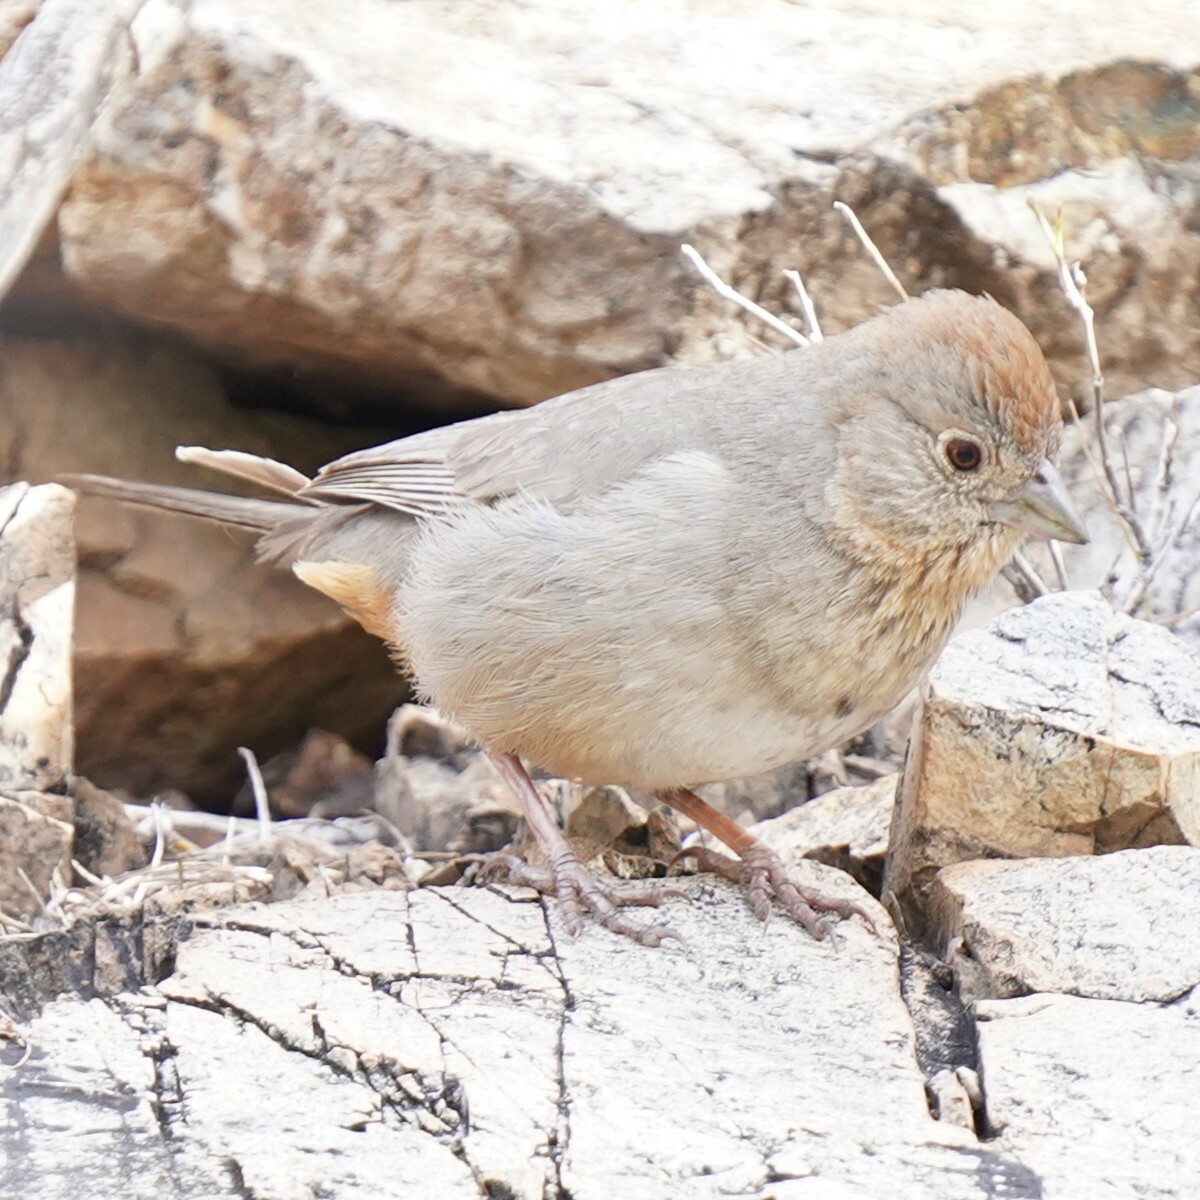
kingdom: Animalia
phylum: Chordata
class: Aves
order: Passeriformes
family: Passerellidae
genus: Melozone
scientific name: Melozone fusca
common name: Canyon towhee
